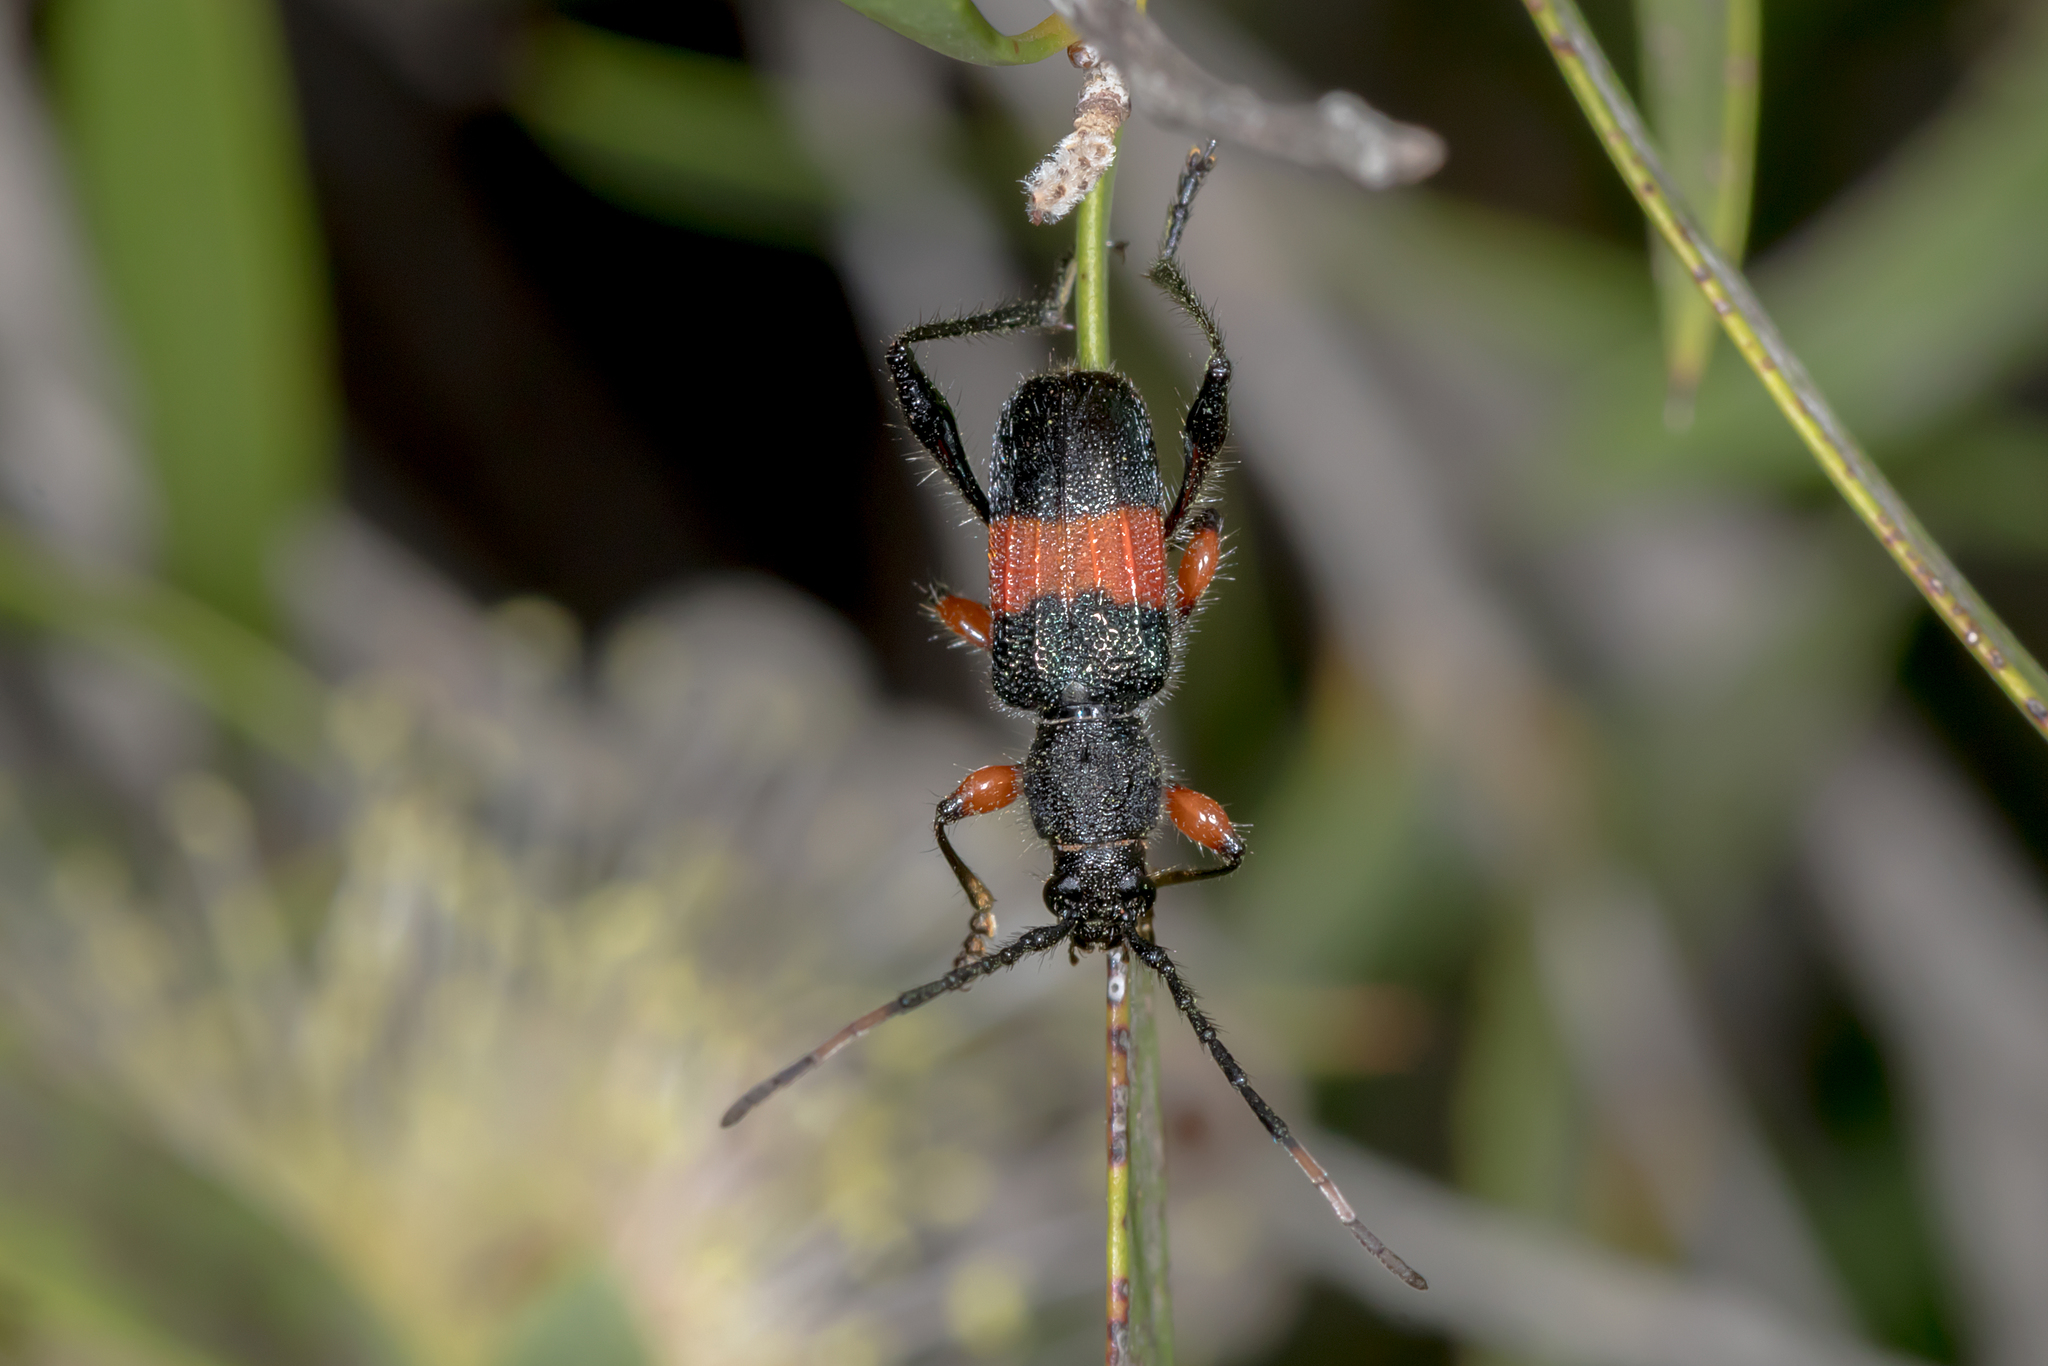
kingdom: Animalia
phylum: Arthropoda
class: Insecta
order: Coleoptera
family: Cerambycidae
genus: Obrida
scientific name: Obrida fascialis
